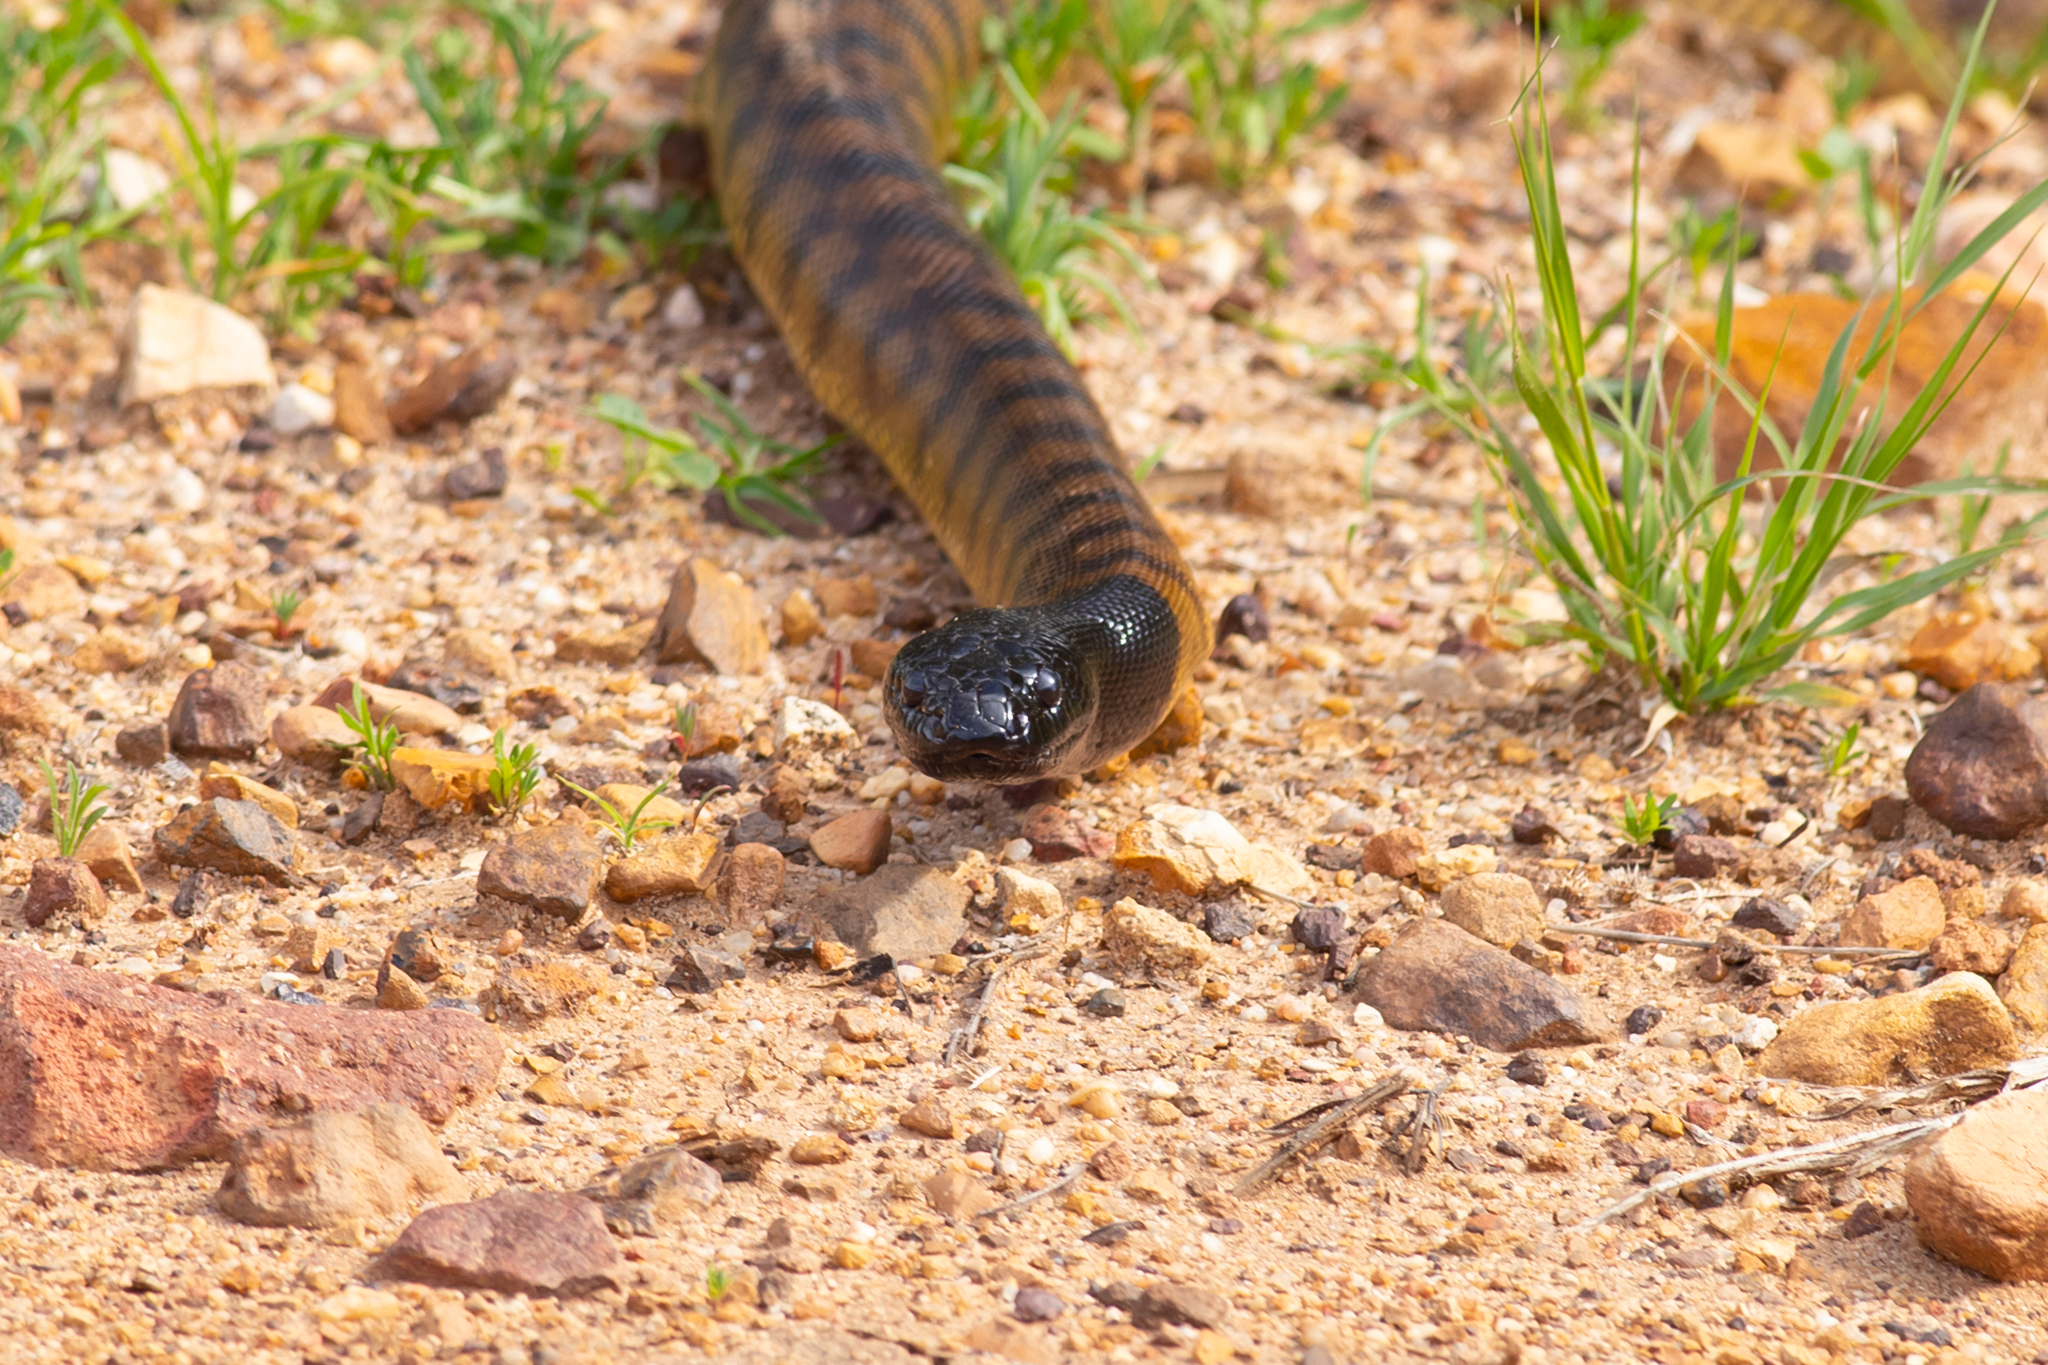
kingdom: Animalia
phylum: Chordata
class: Squamata
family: Pythonidae
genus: Aspidites
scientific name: Aspidites melanocephalus
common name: Black-headed python
